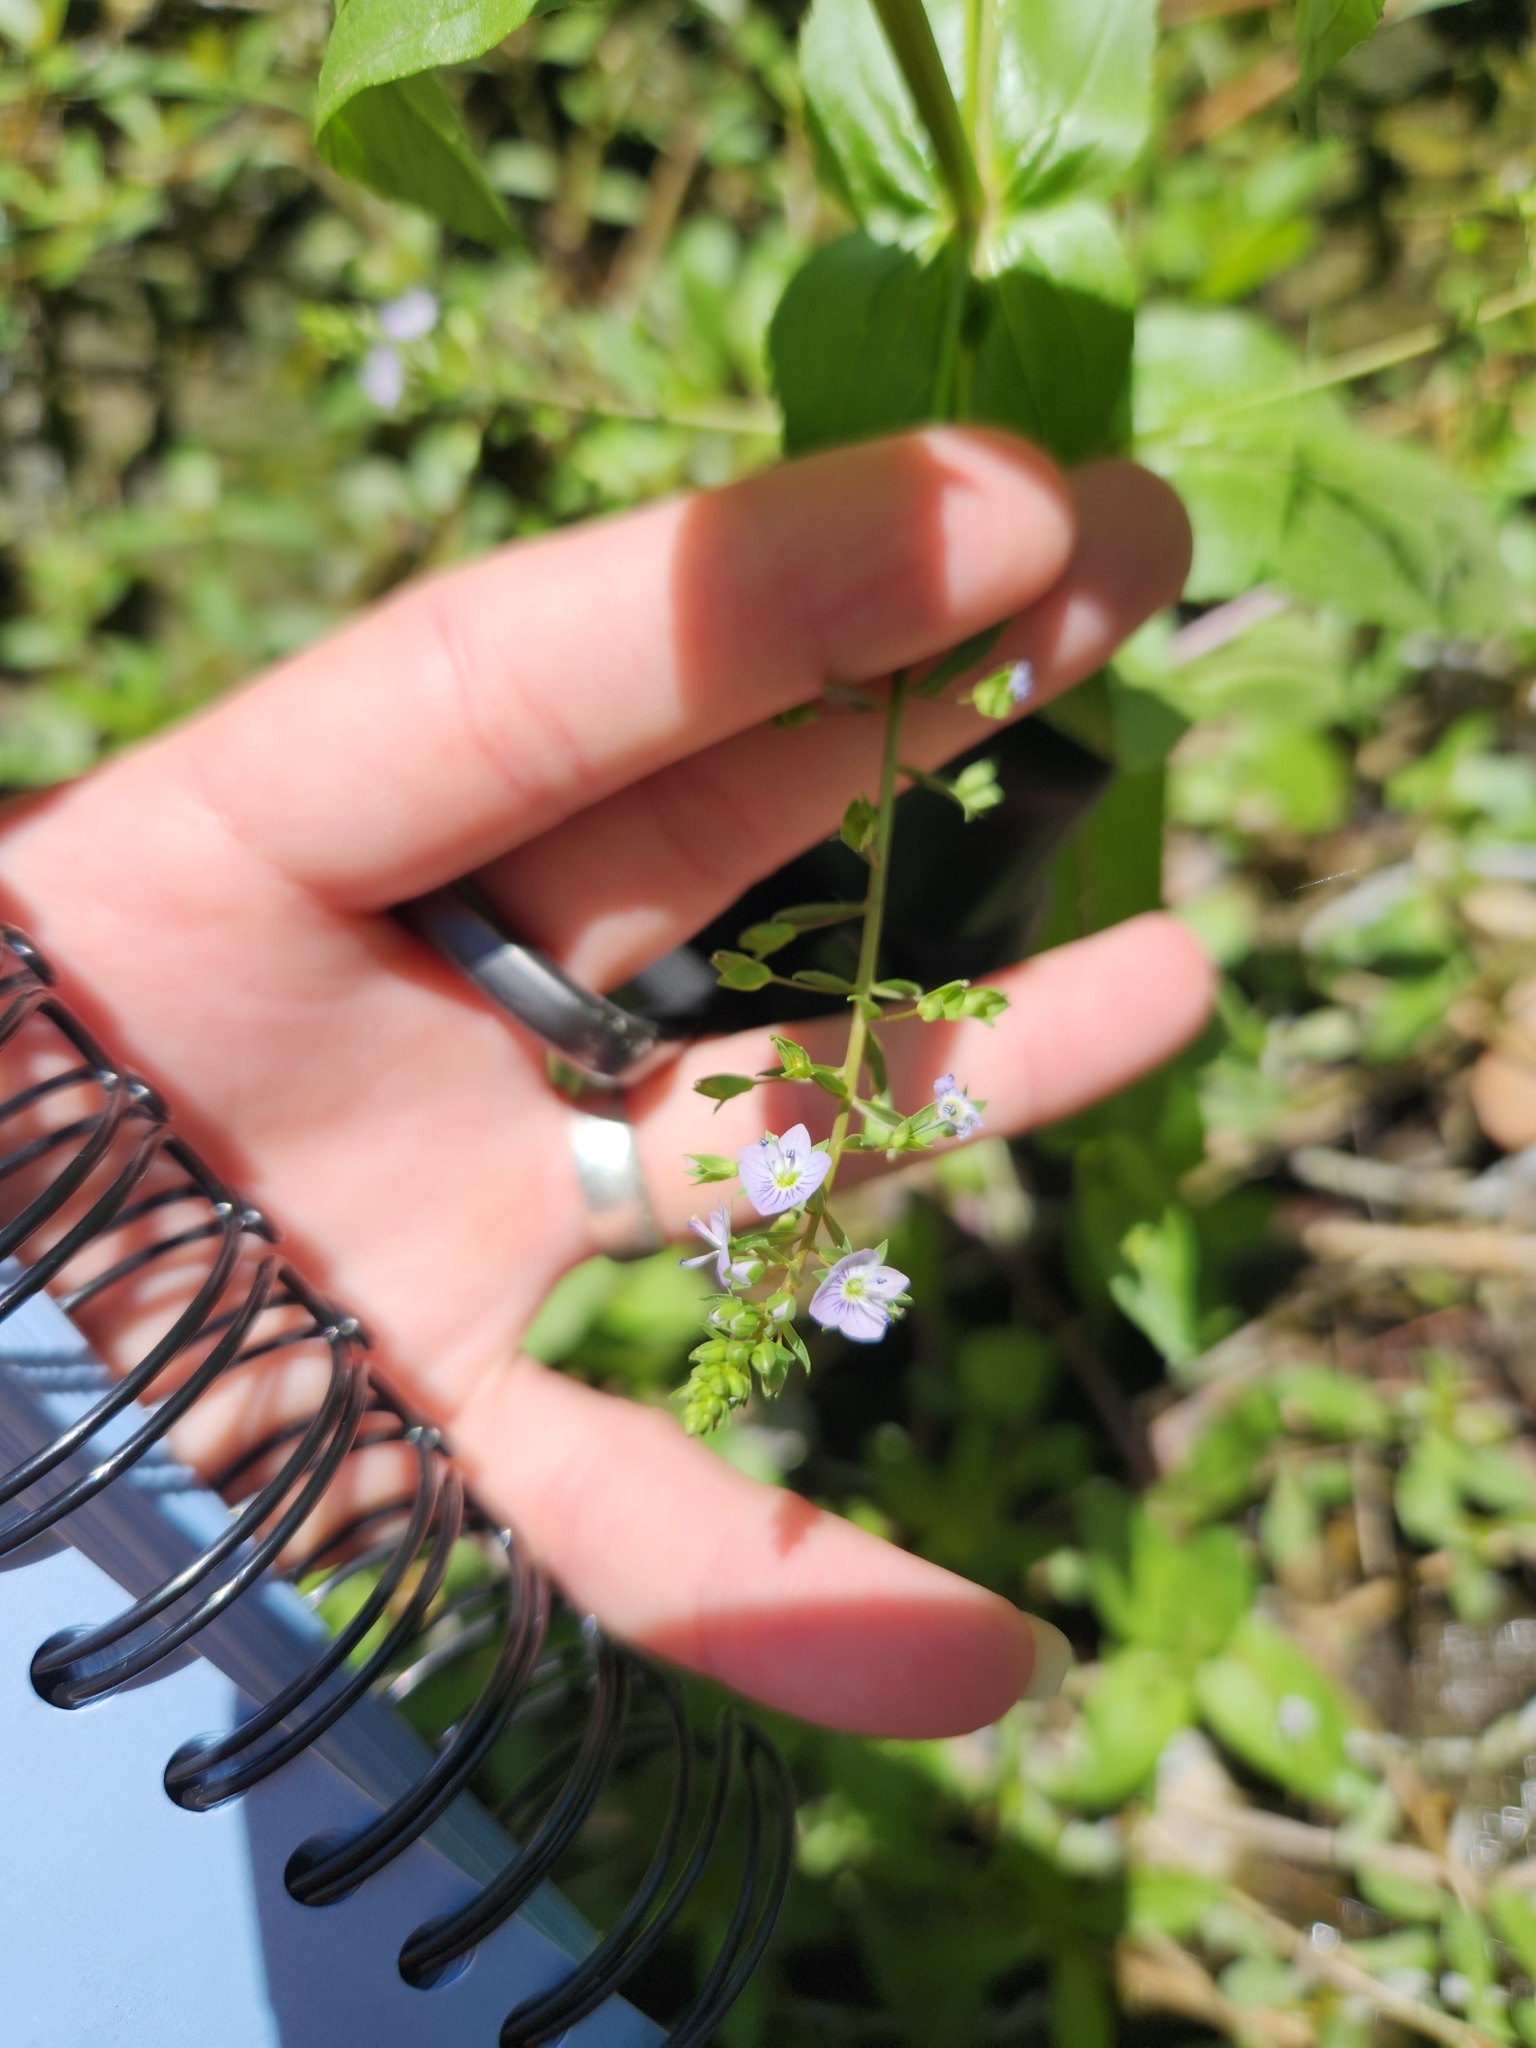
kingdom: Plantae
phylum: Tracheophyta
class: Magnoliopsida
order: Lamiales
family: Plantaginaceae
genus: Veronica
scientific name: Veronica anagallis-aquatica
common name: Water speedwell
